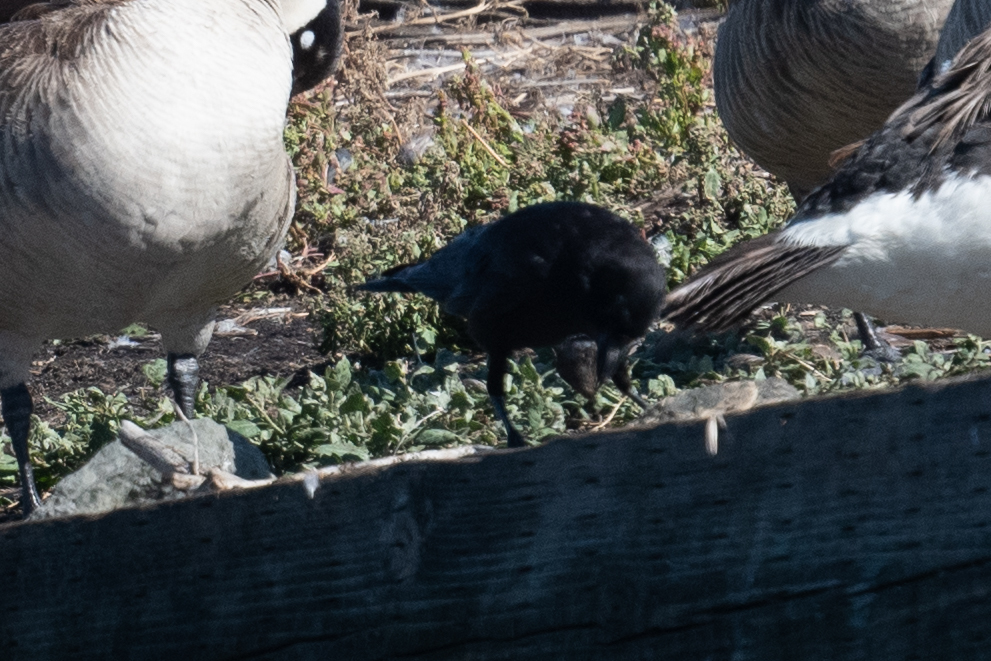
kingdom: Animalia
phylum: Chordata
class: Aves
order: Passeriformes
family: Corvidae
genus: Corvus
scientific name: Corvus brachyrhynchos
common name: American crow
